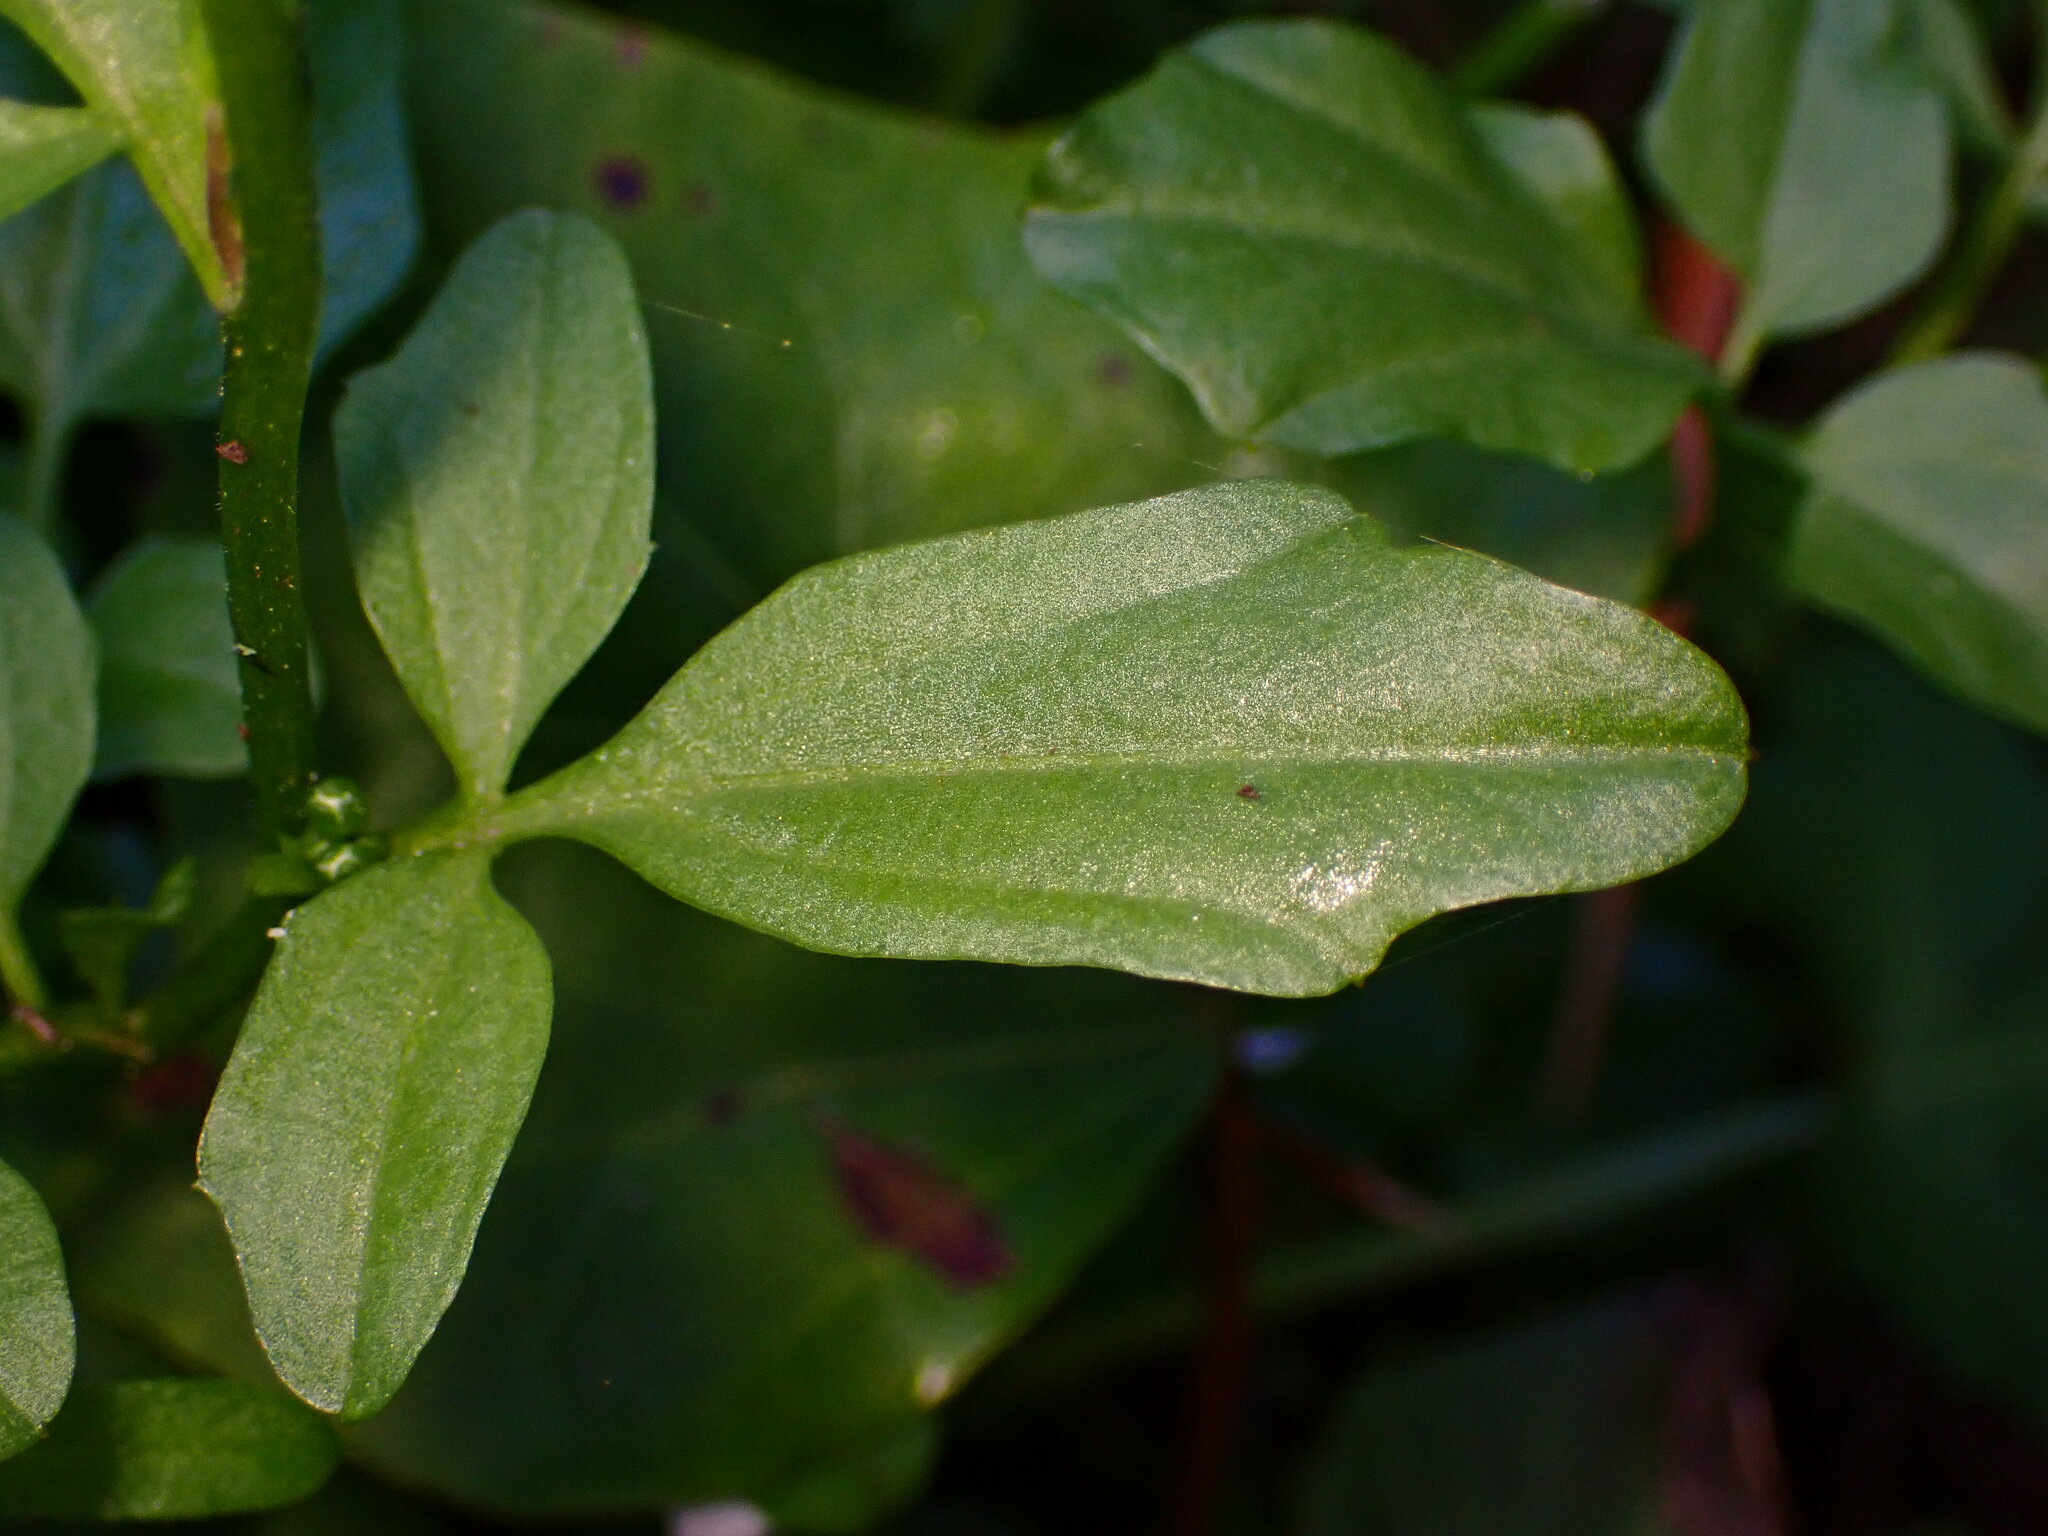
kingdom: Plantae
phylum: Tracheophyta
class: Magnoliopsida
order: Brassicales
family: Brassicaceae
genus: Cardamine
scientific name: Cardamine californica
